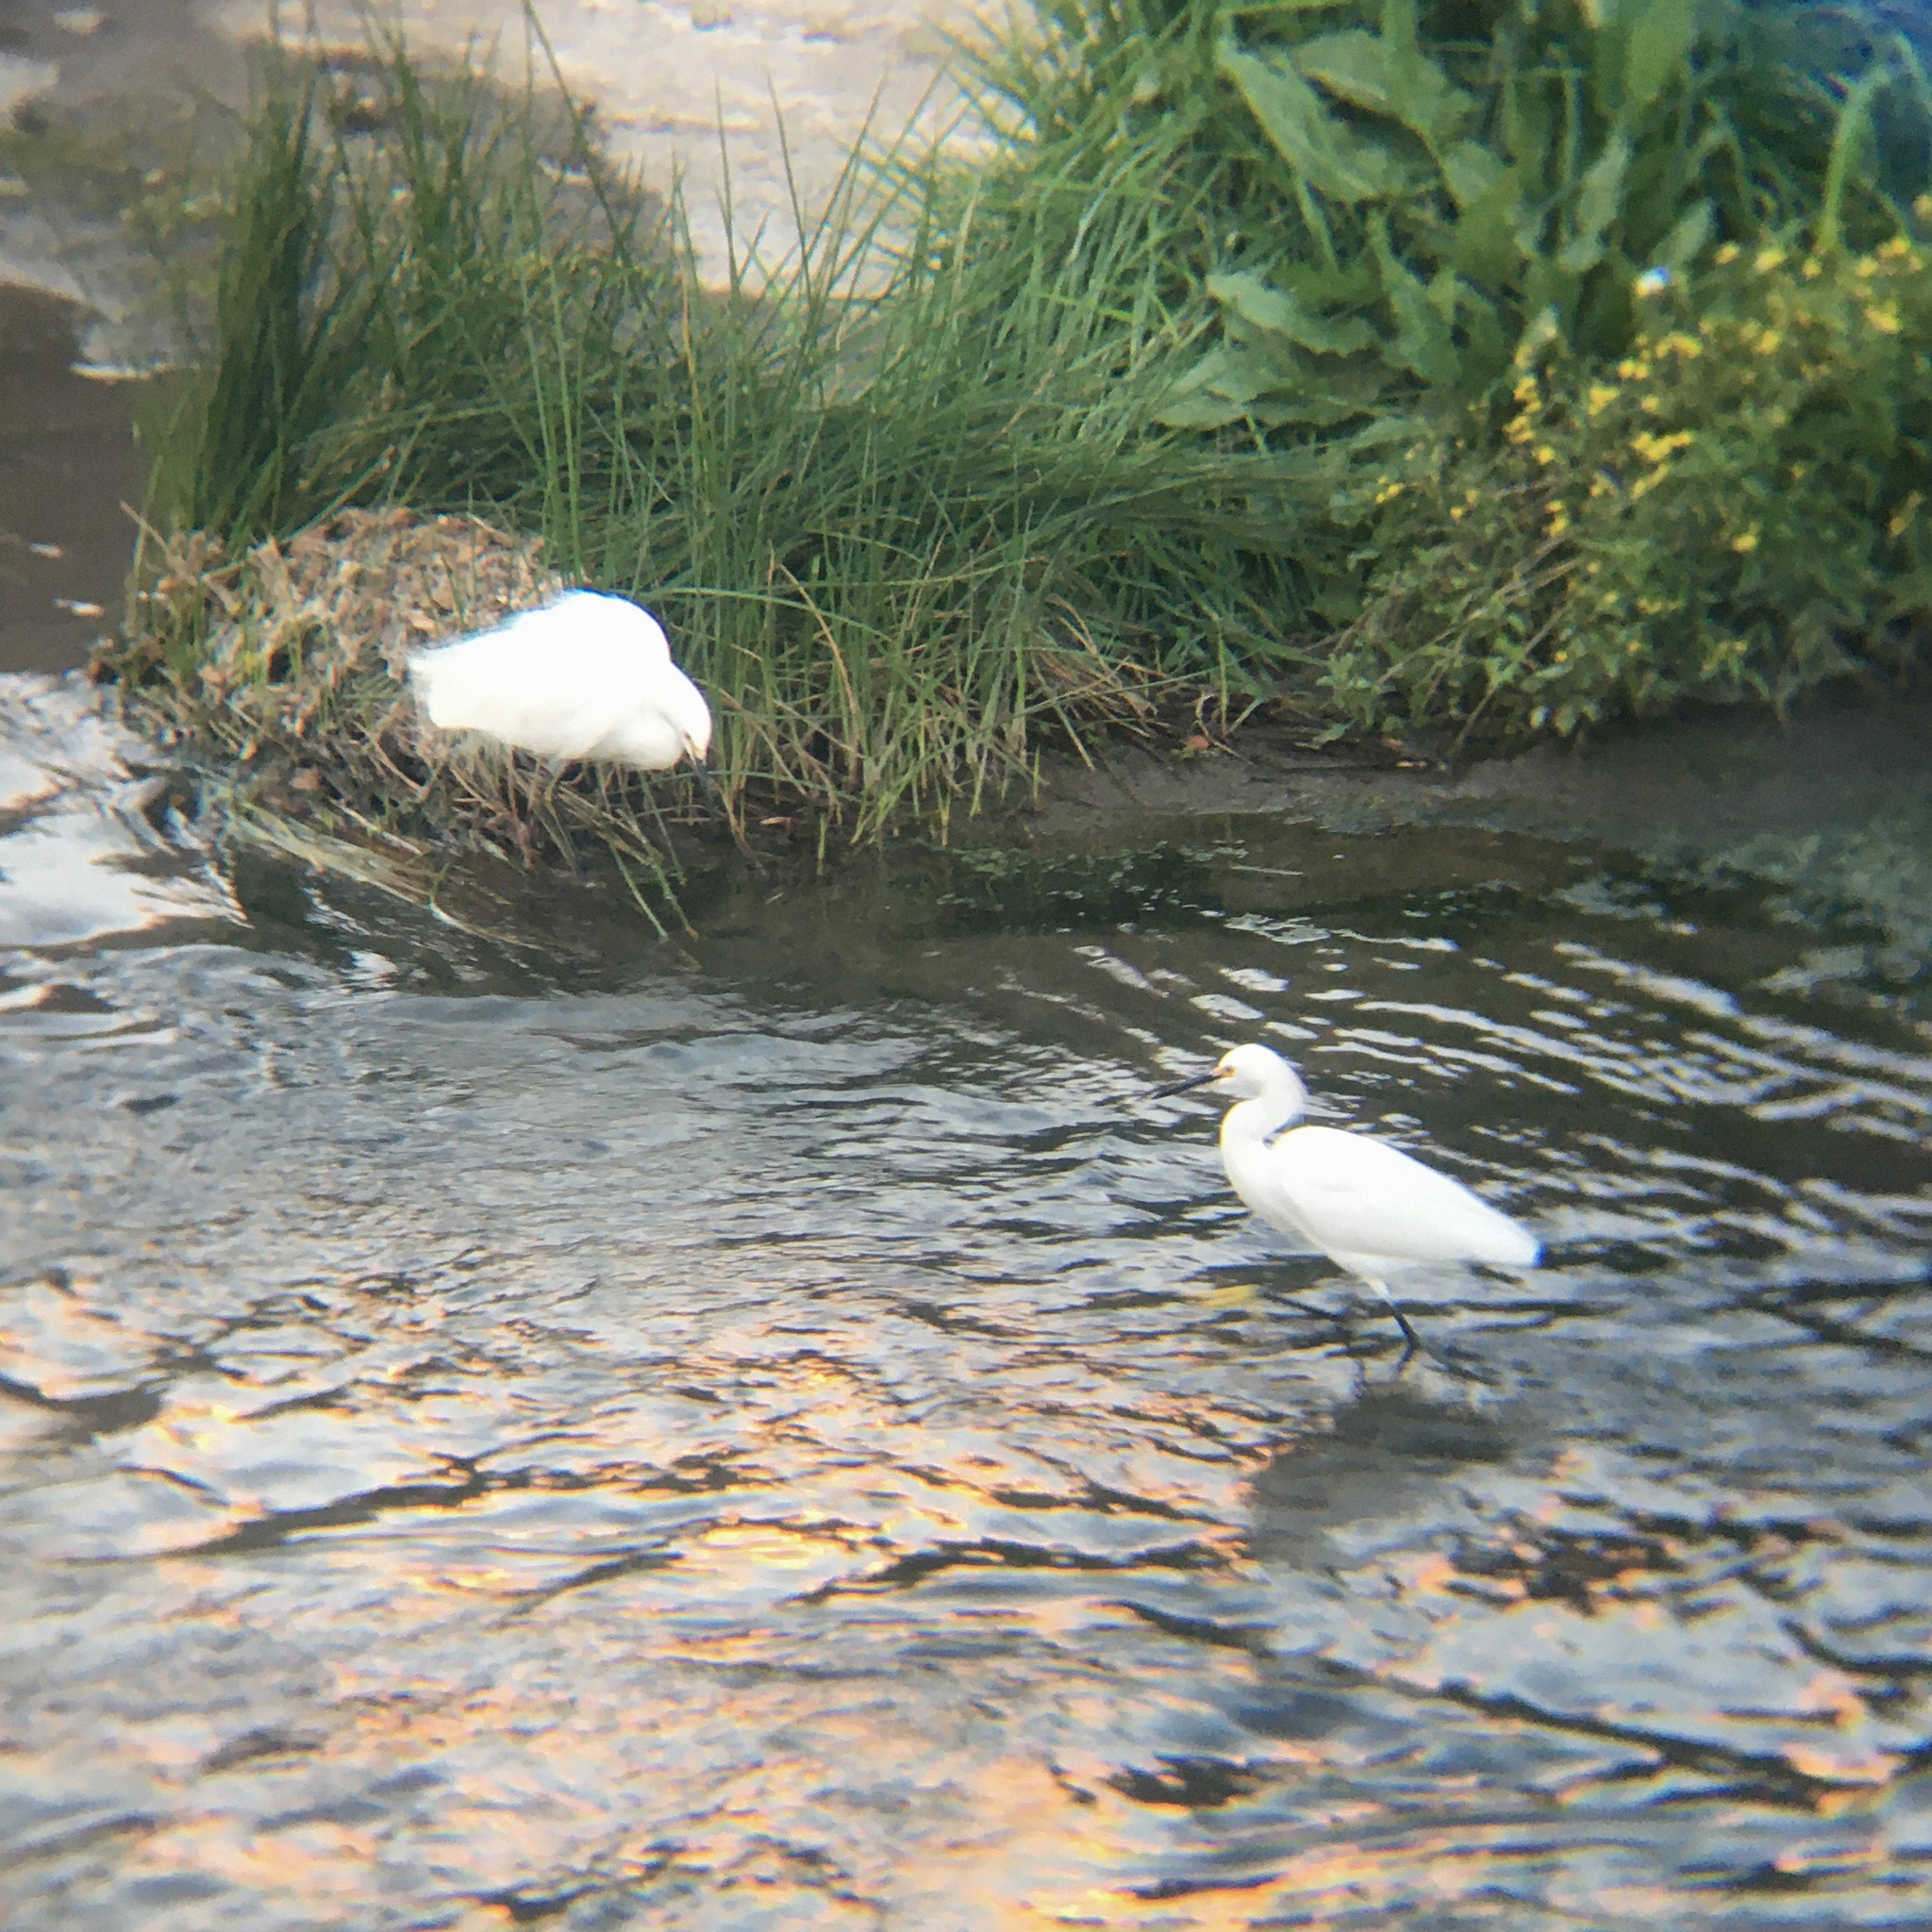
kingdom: Animalia
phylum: Chordata
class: Aves
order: Pelecaniformes
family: Ardeidae
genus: Egretta
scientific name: Egretta thula
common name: Snowy egret
